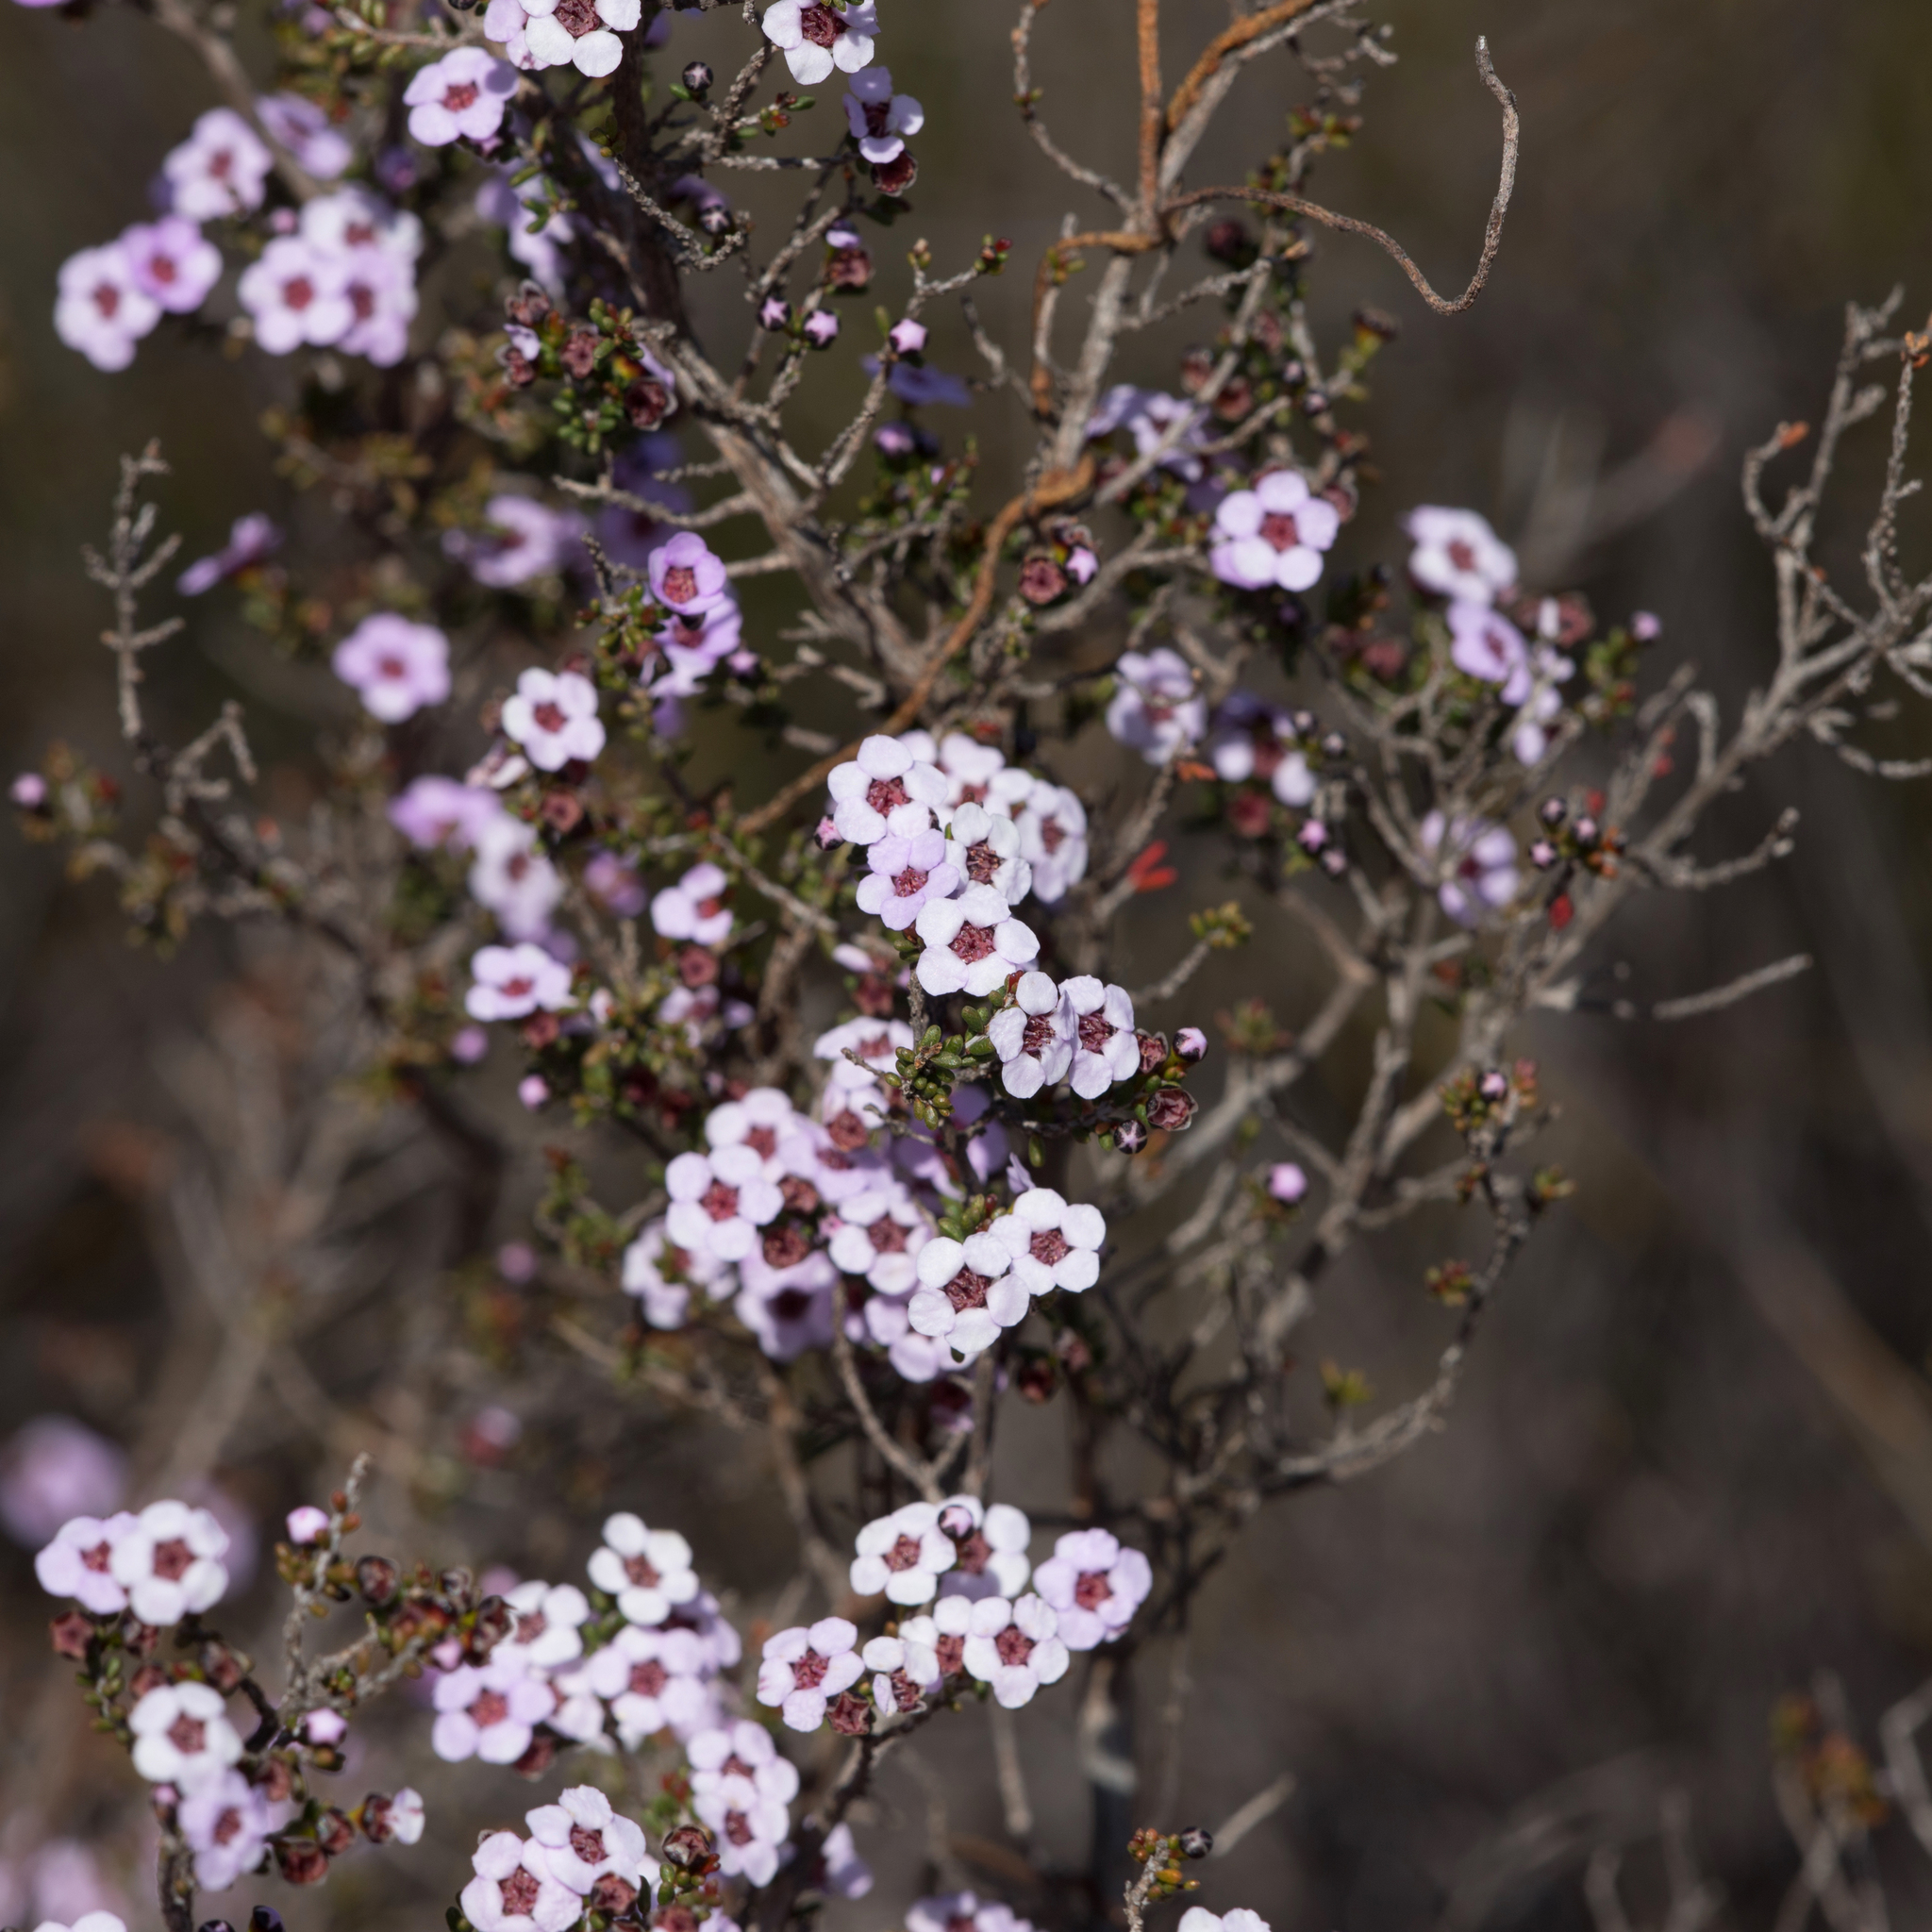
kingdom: Plantae
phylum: Tracheophyta
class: Magnoliopsida
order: Myrtales
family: Myrtaceae
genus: Rinzia
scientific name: Rinzia orientalis
